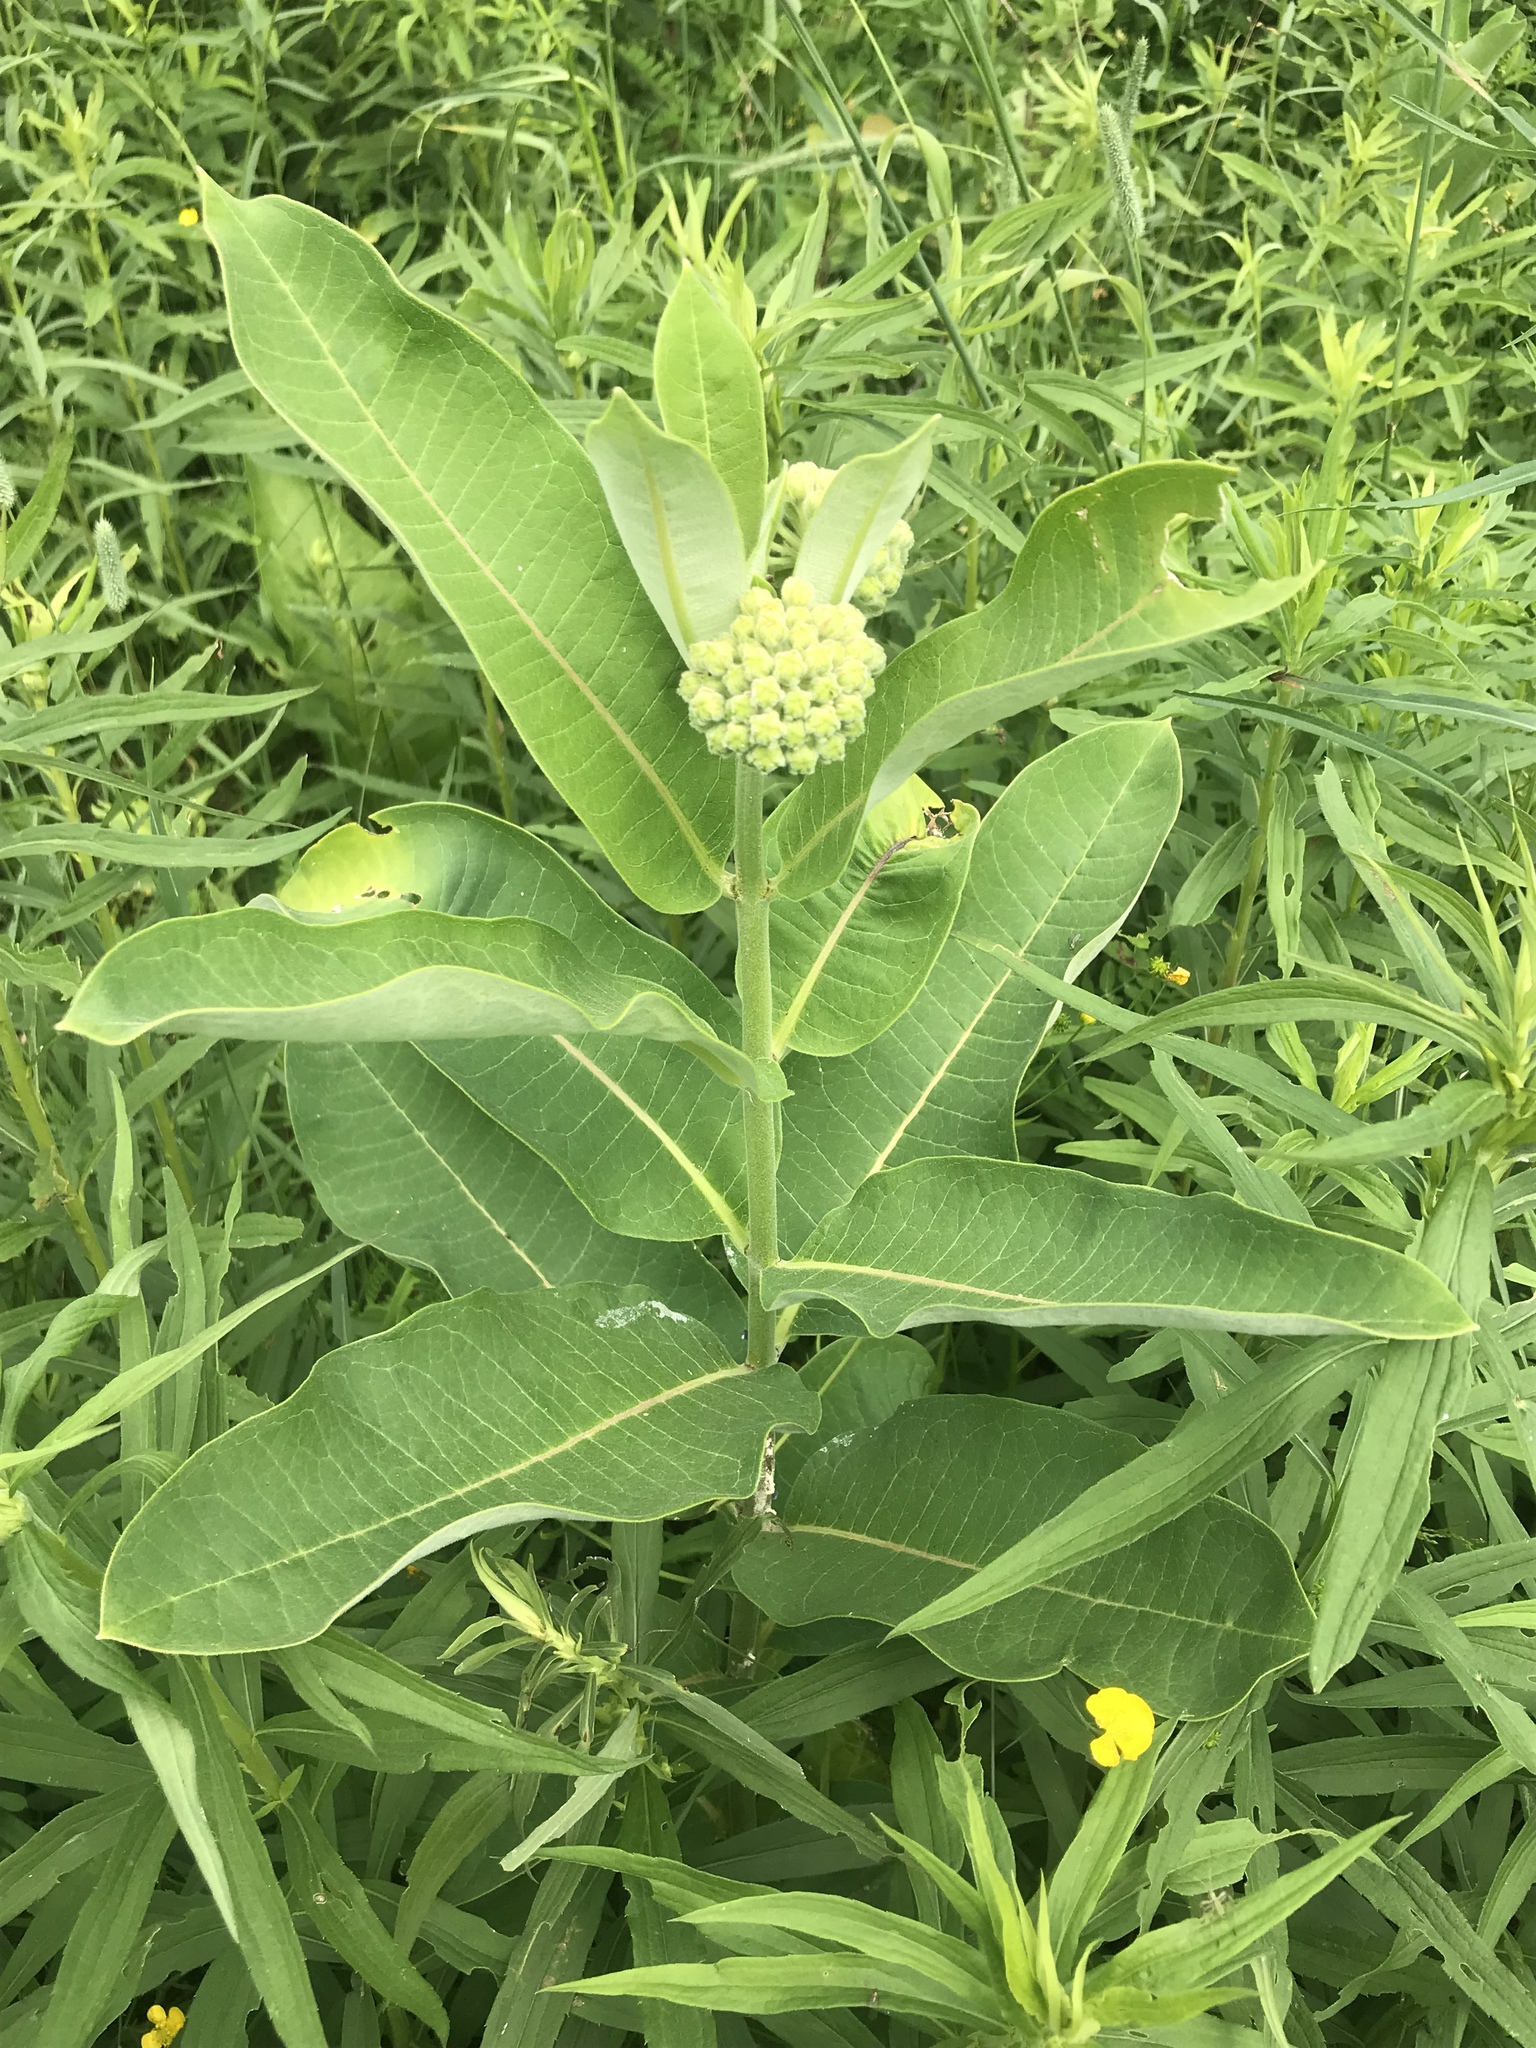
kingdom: Plantae
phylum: Tracheophyta
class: Magnoliopsida
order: Gentianales
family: Apocynaceae
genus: Asclepias
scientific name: Asclepias syriaca
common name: Common milkweed
